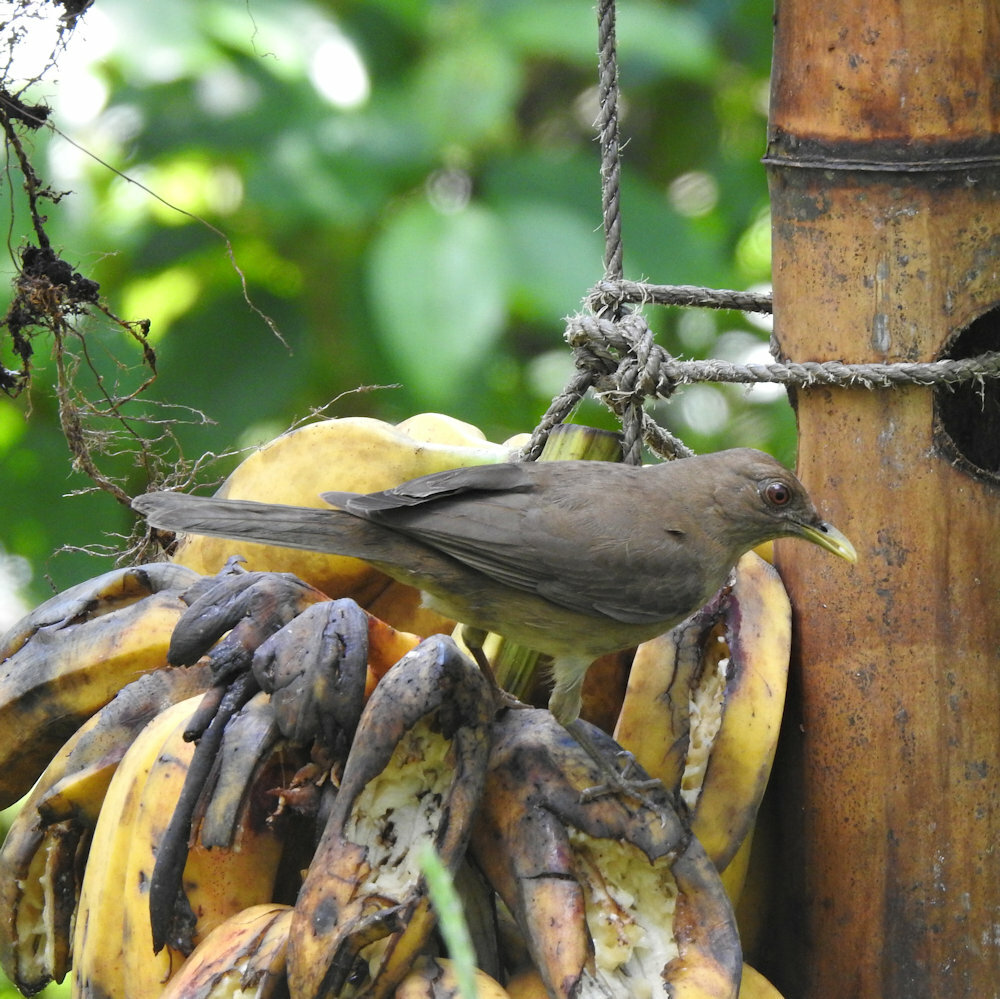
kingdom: Animalia
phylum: Chordata
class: Aves
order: Passeriformes
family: Turdidae
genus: Turdus
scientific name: Turdus grayi
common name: Clay-colored thrush
